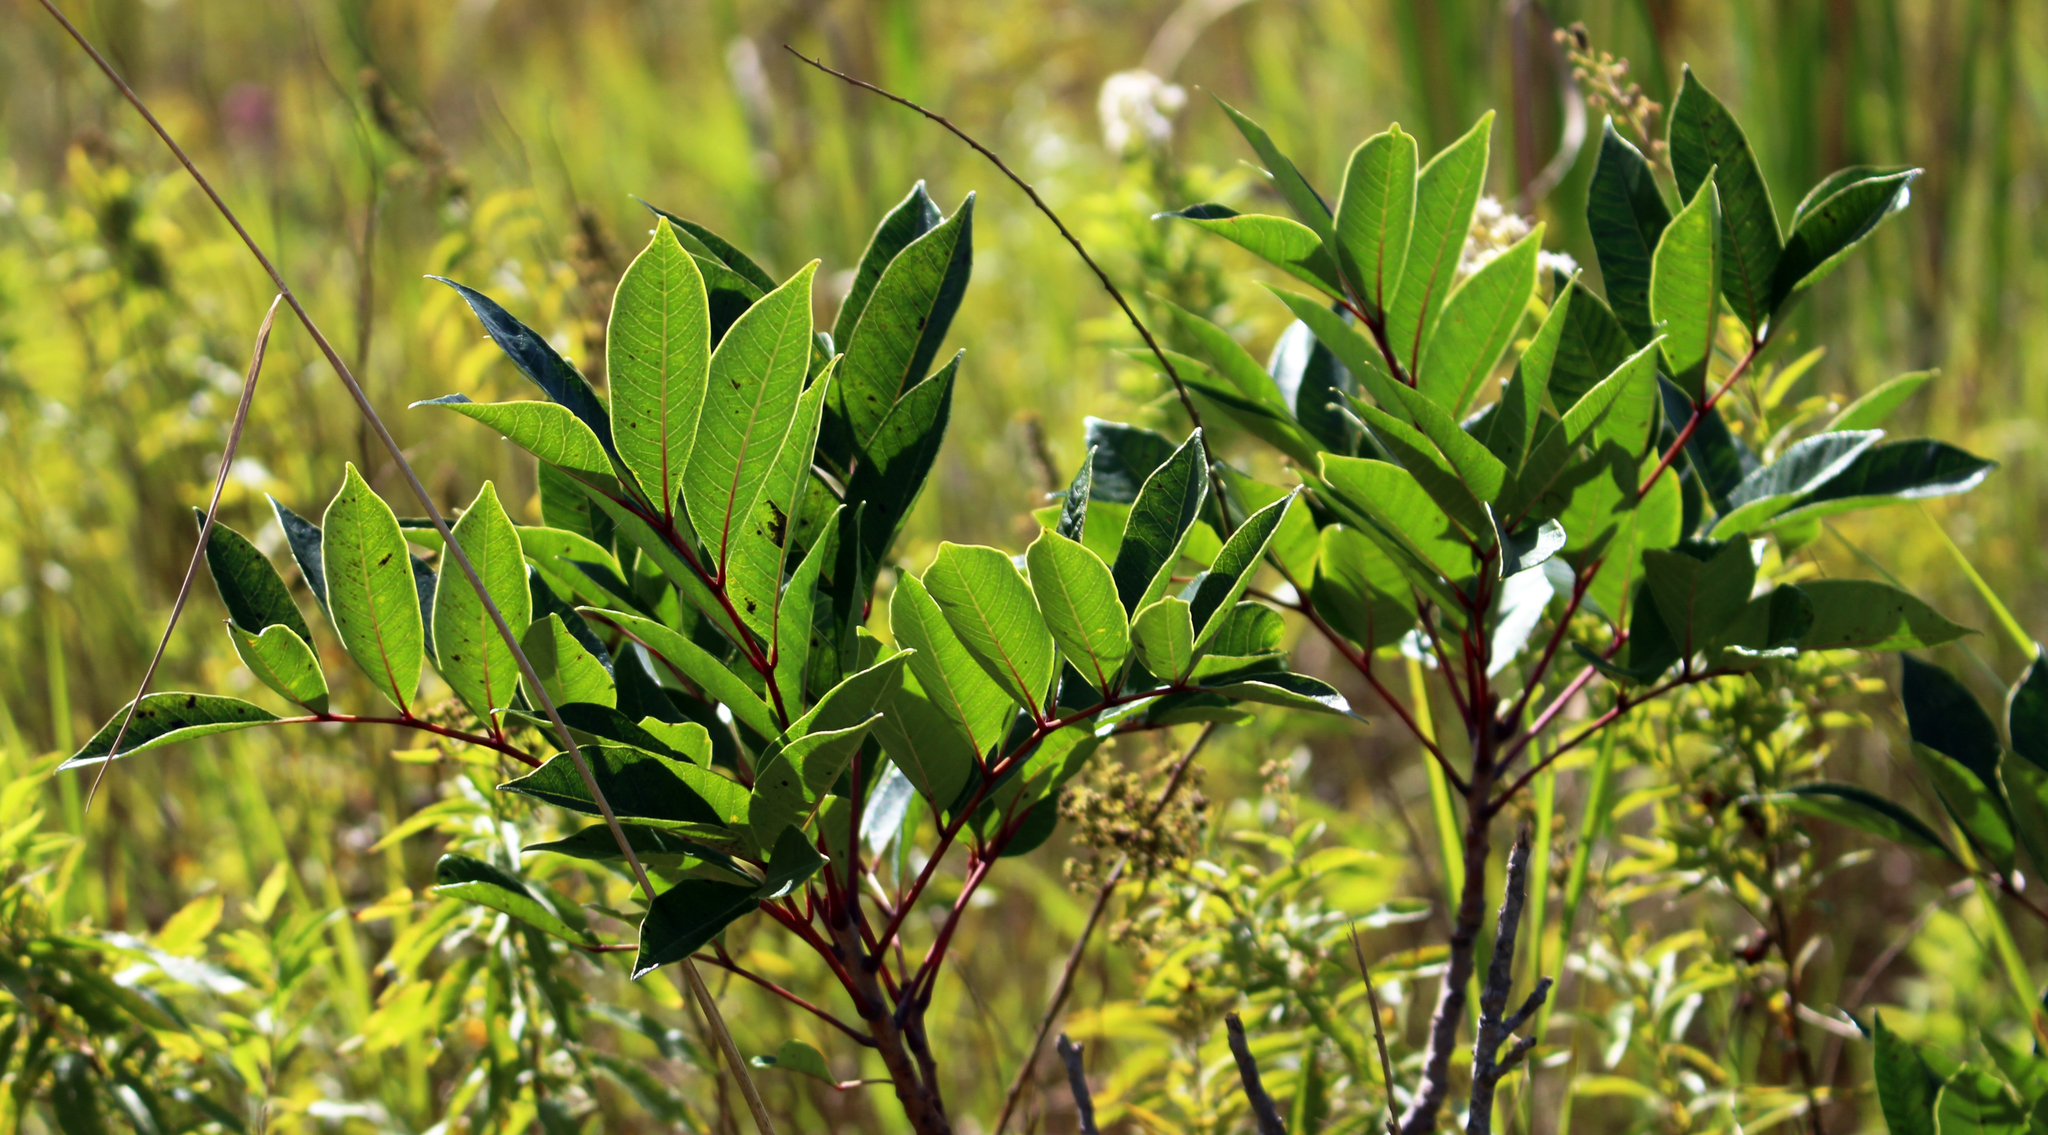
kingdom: Plantae
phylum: Tracheophyta
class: Magnoliopsida
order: Sapindales
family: Anacardiaceae
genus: Toxicodendron
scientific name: Toxicodendron vernix
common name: Poison sumac
